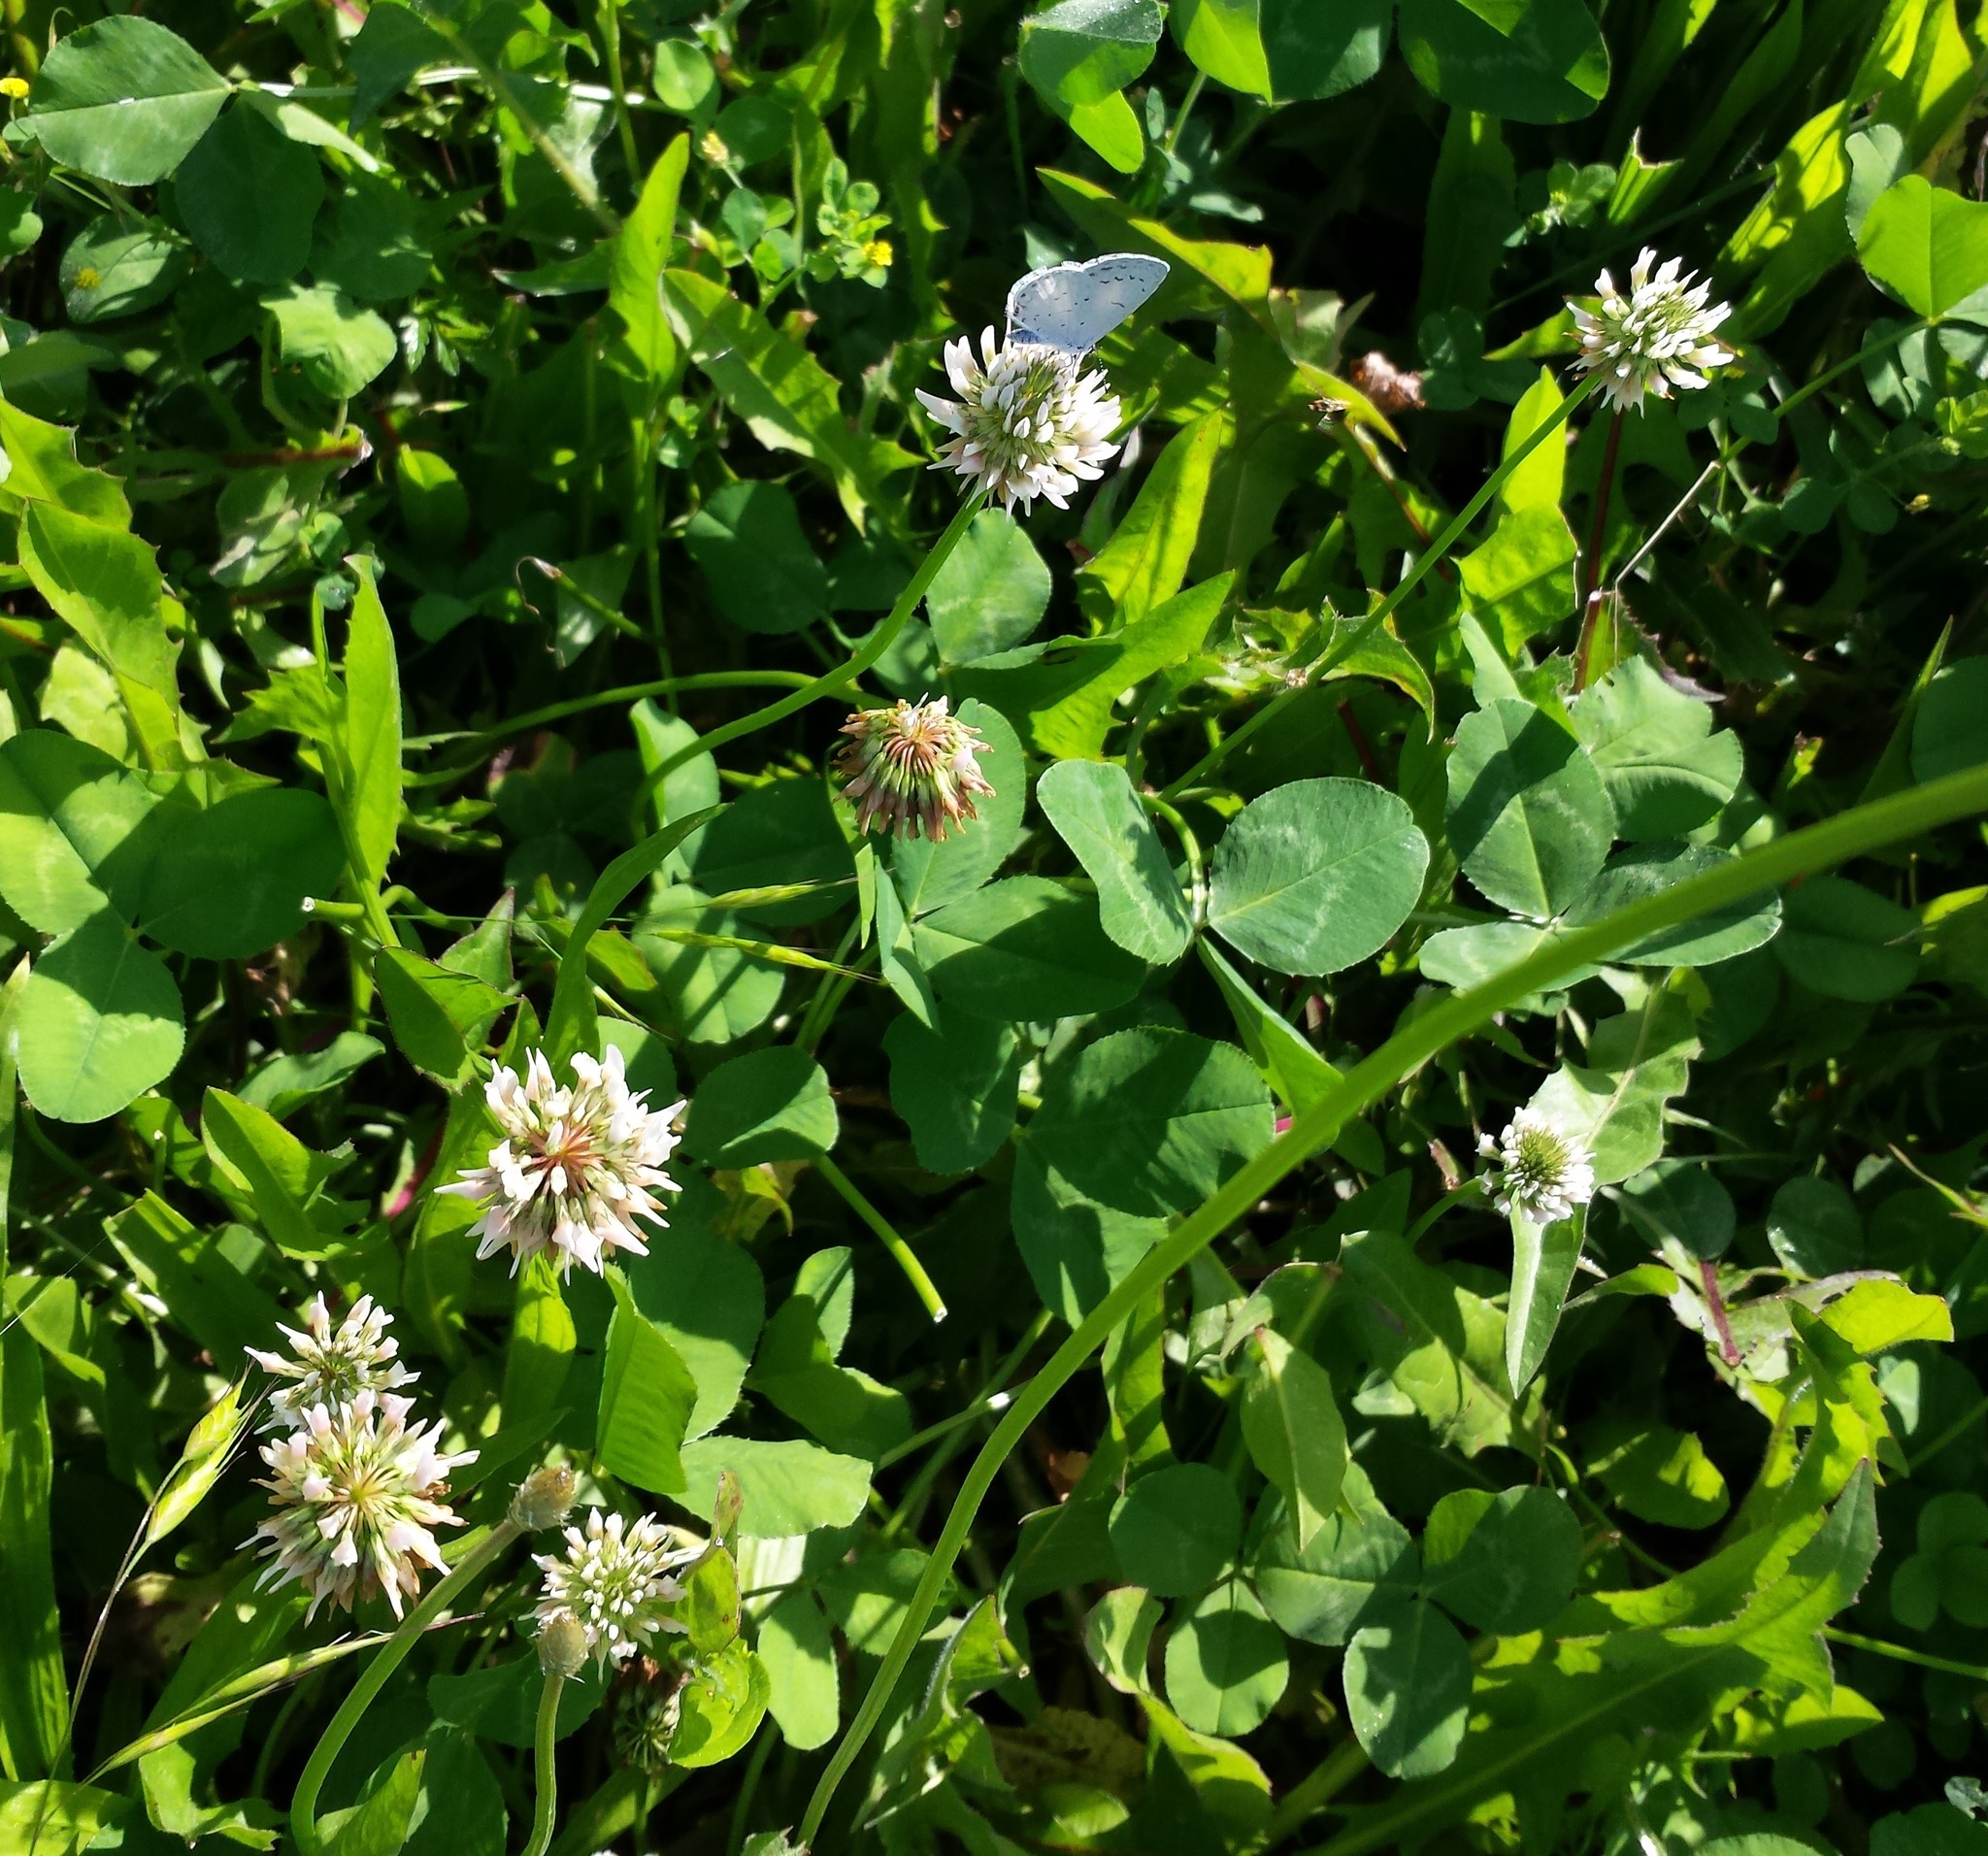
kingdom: Plantae
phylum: Tracheophyta
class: Magnoliopsida
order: Fabales
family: Fabaceae
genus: Trifolium
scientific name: Trifolium repens
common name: White clover
